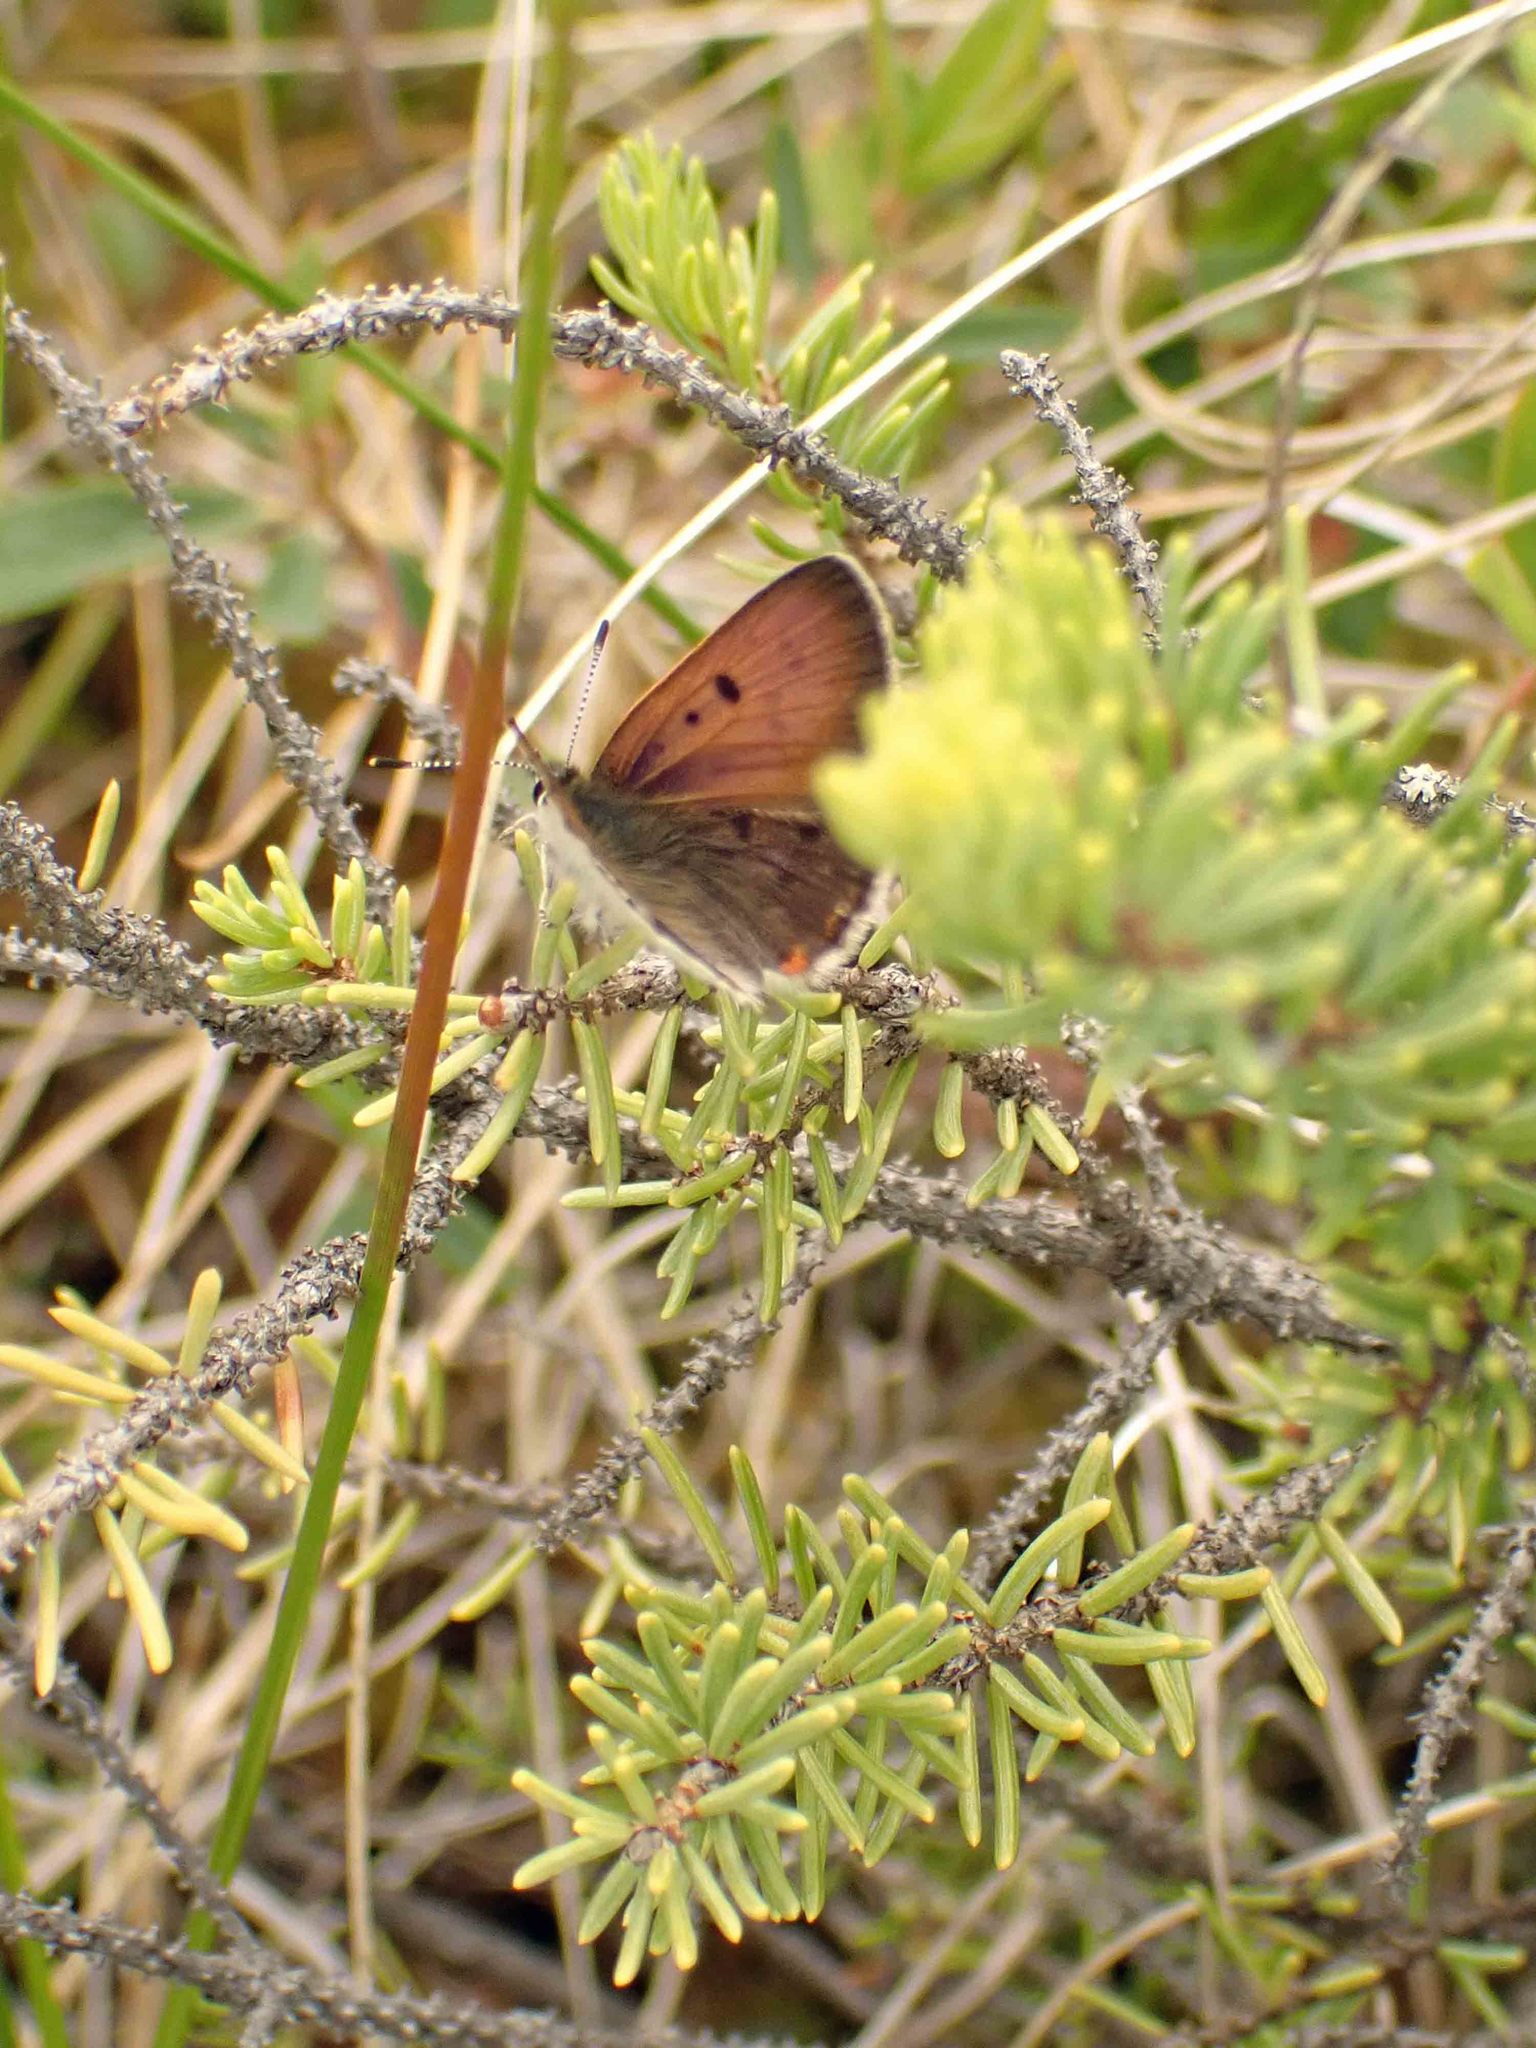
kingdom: Animalia
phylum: Arthropoda
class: Insecta
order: Lepidoptera
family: Lycaenidae
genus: Tharsalea
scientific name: Tharsalea epixanthe
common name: Bog copper
